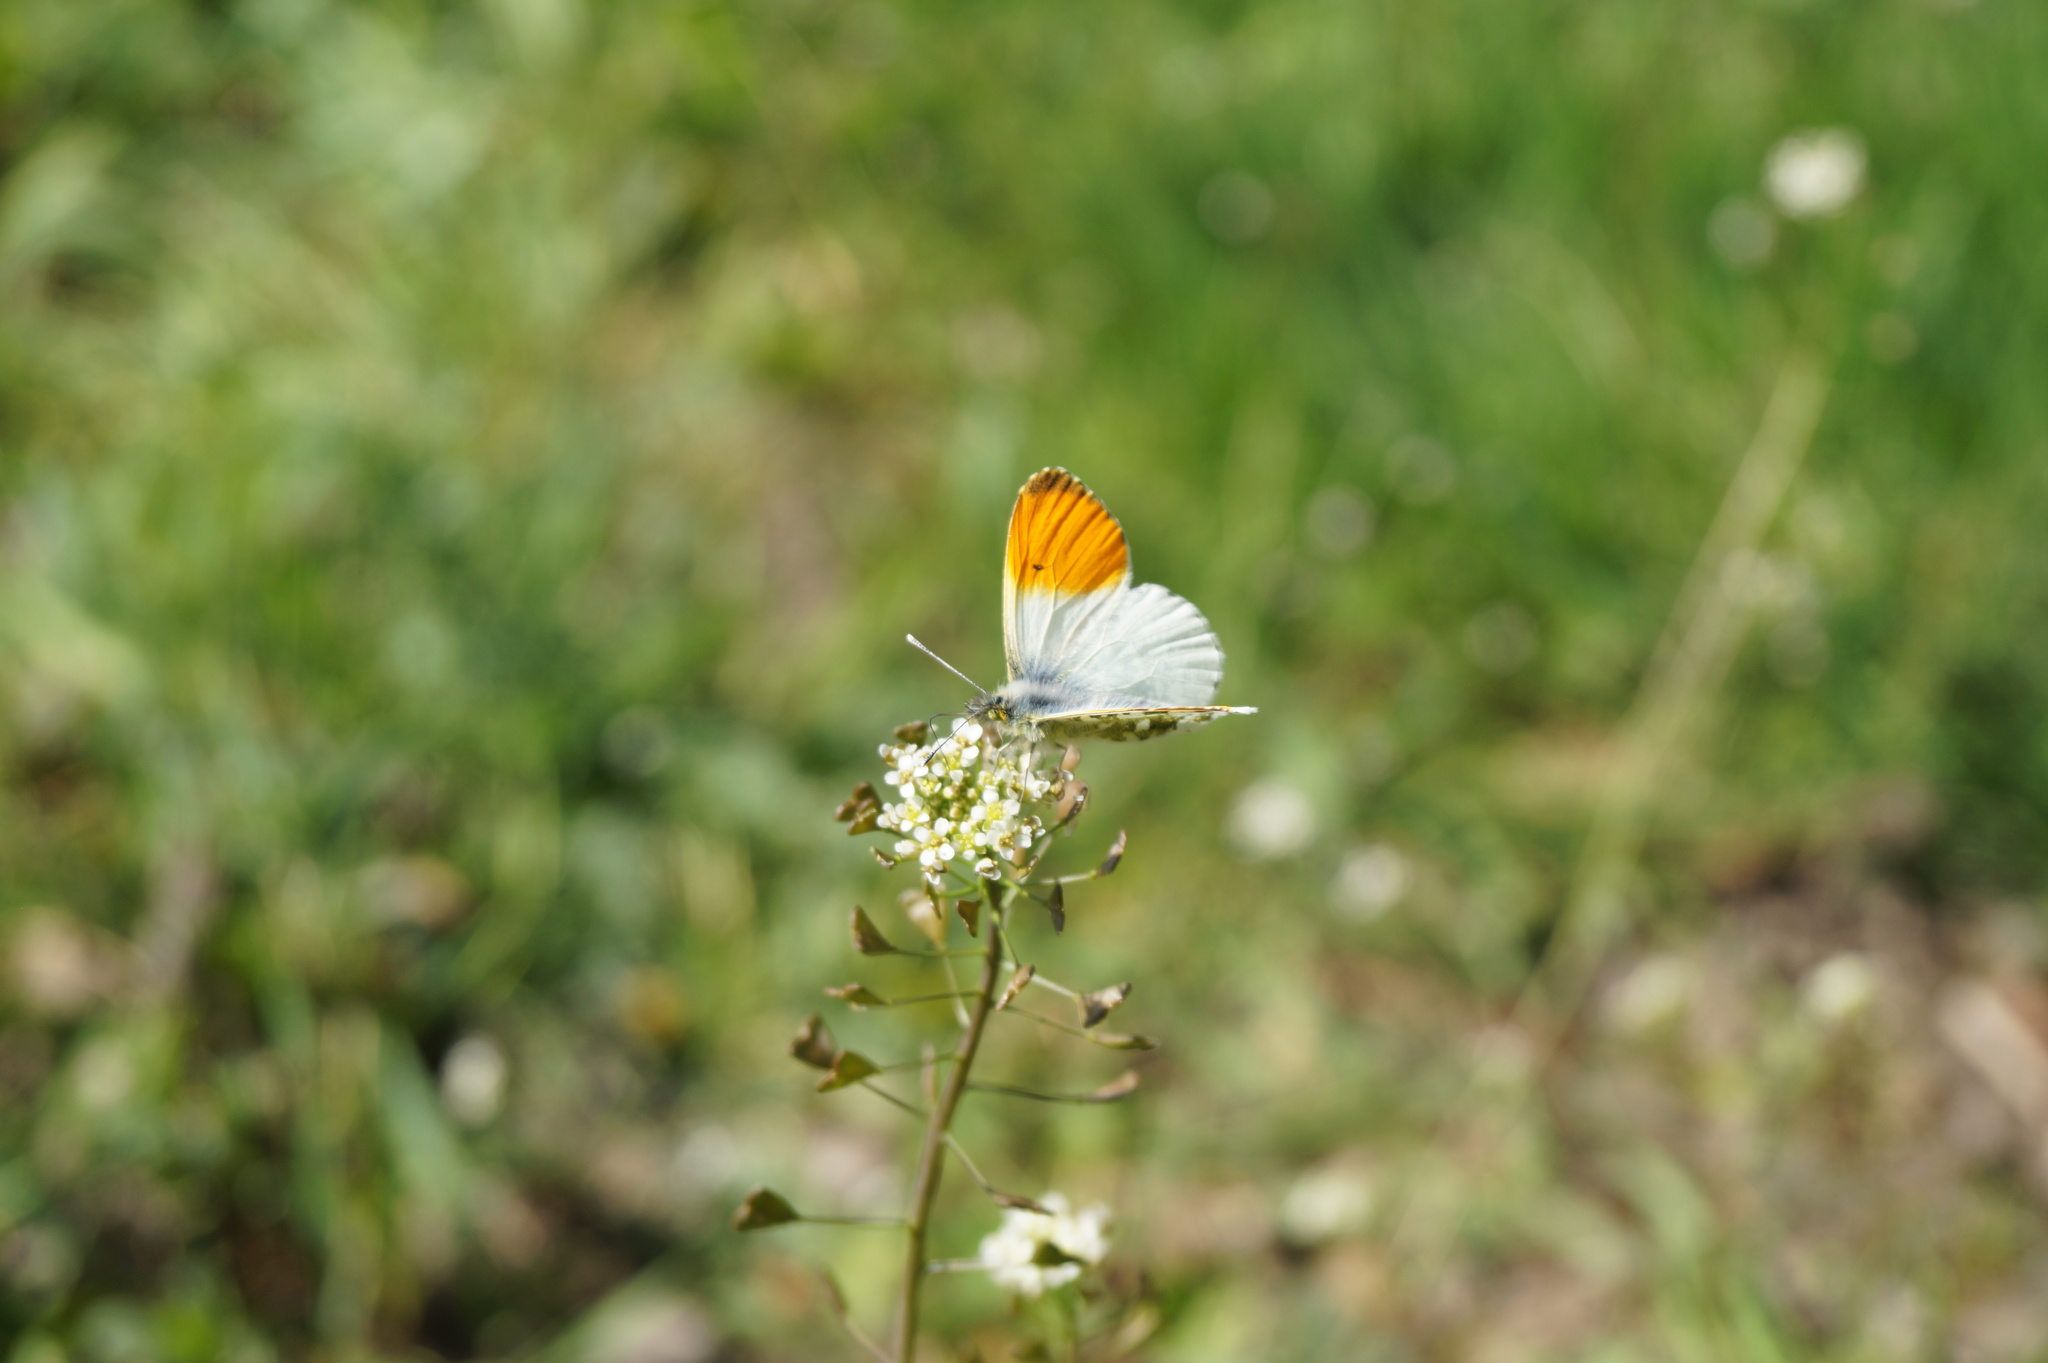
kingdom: Animalia
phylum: Arthropoda
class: Insecta
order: Lepidoptera
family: Pieridae
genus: Anthocharis
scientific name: Anthocharis cardamines
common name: Orange-tip
